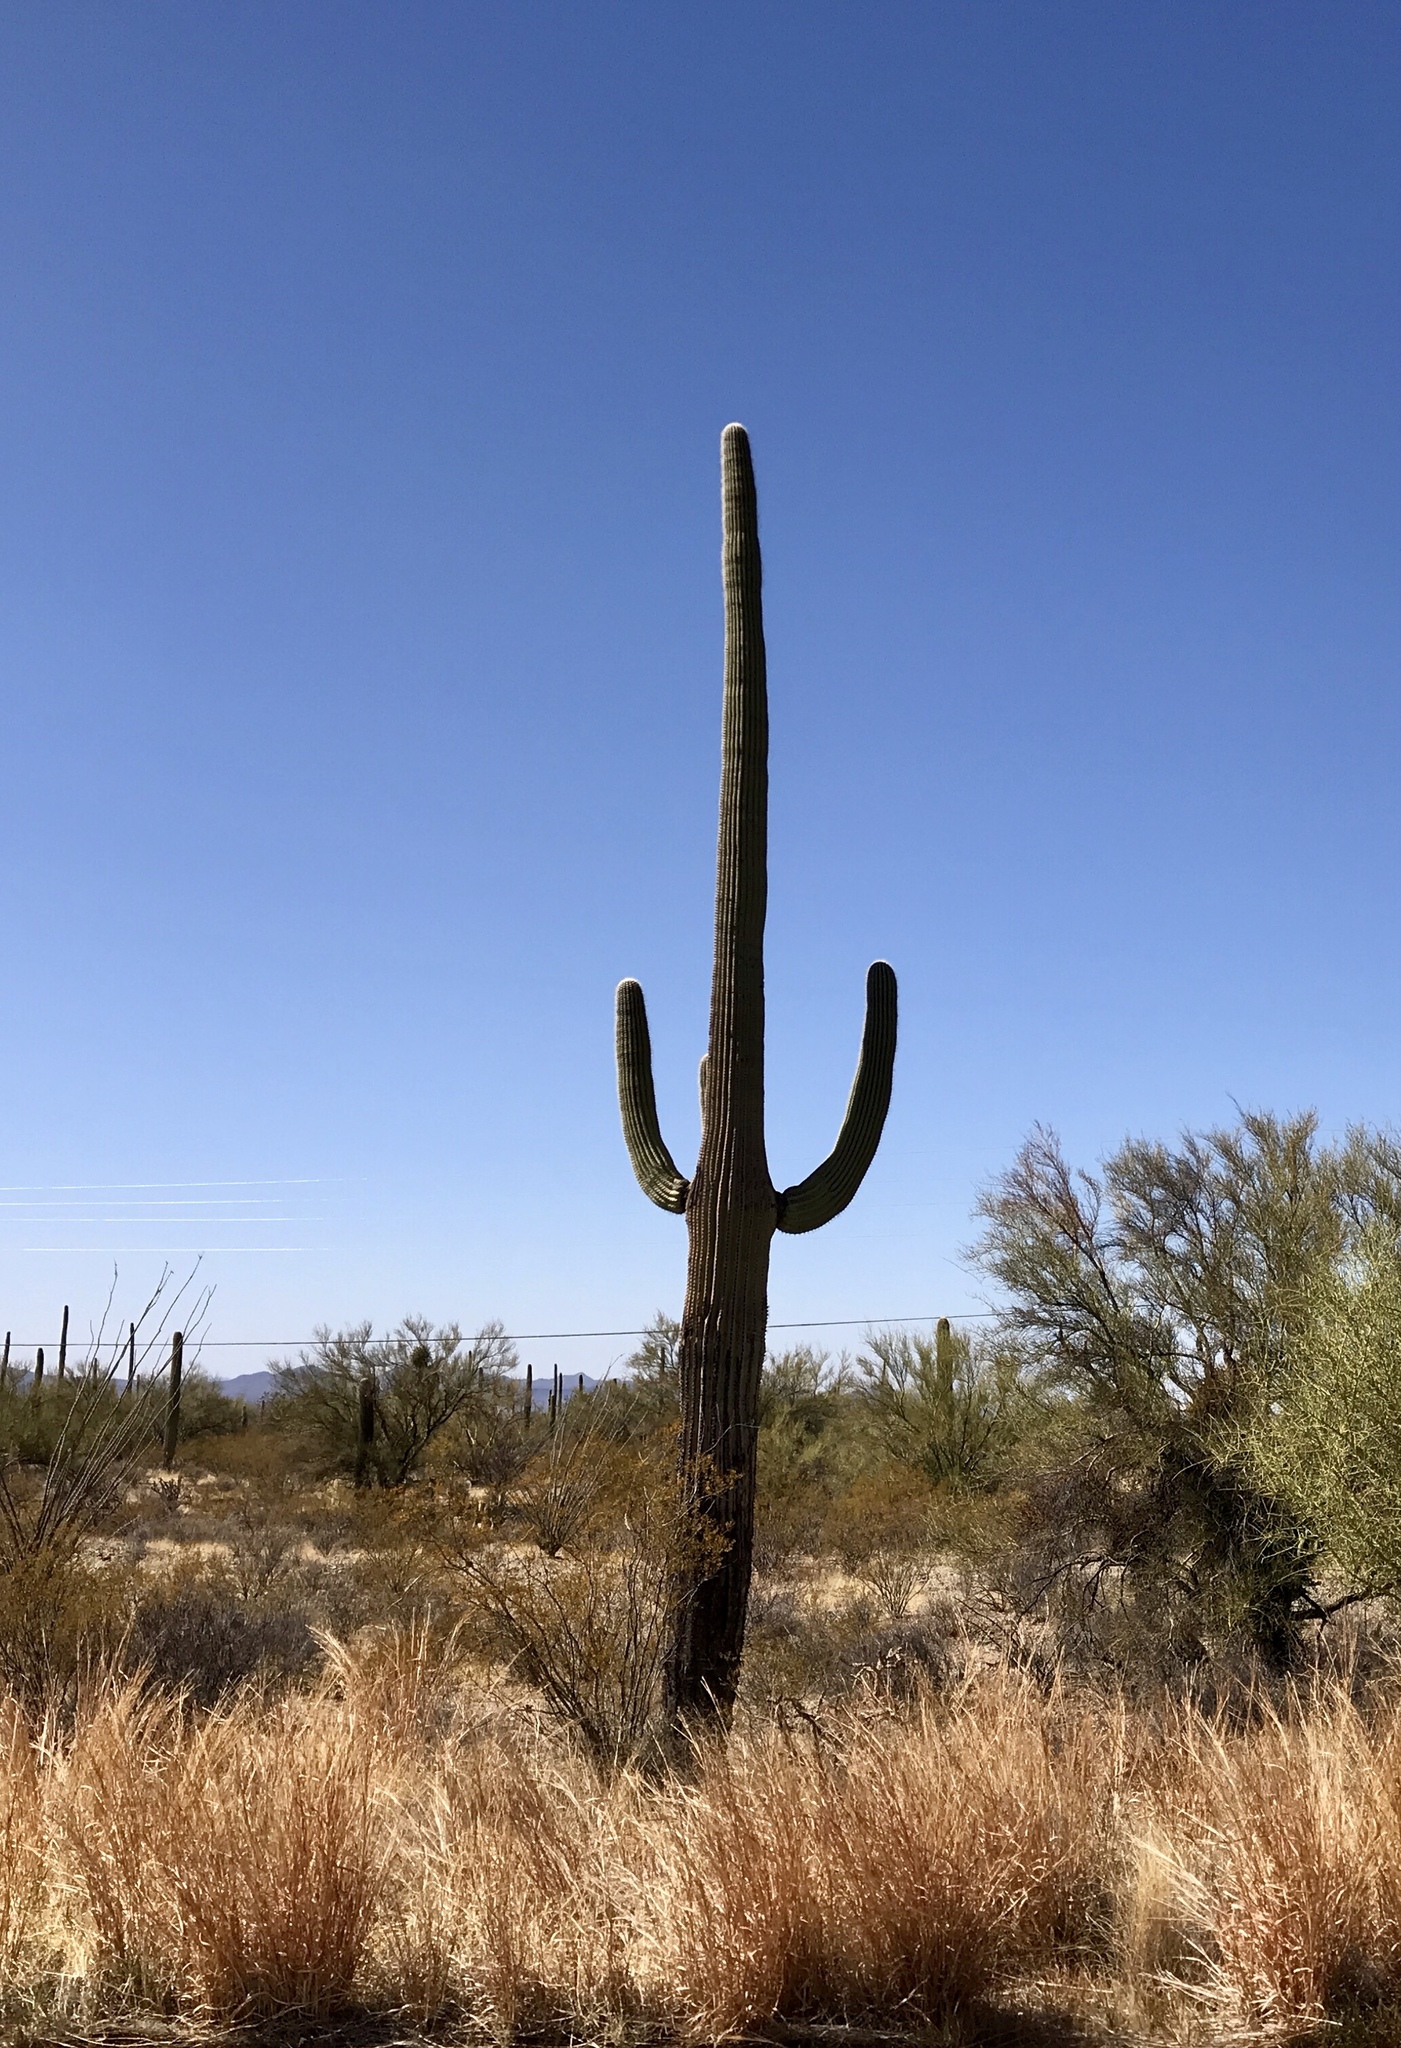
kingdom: Plantae
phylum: Tracheophyta
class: Magnoliopsida
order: Caryophyllales
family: Cactaceae
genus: Carnegiea
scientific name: Carnegiea gigantea
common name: Saguaro
